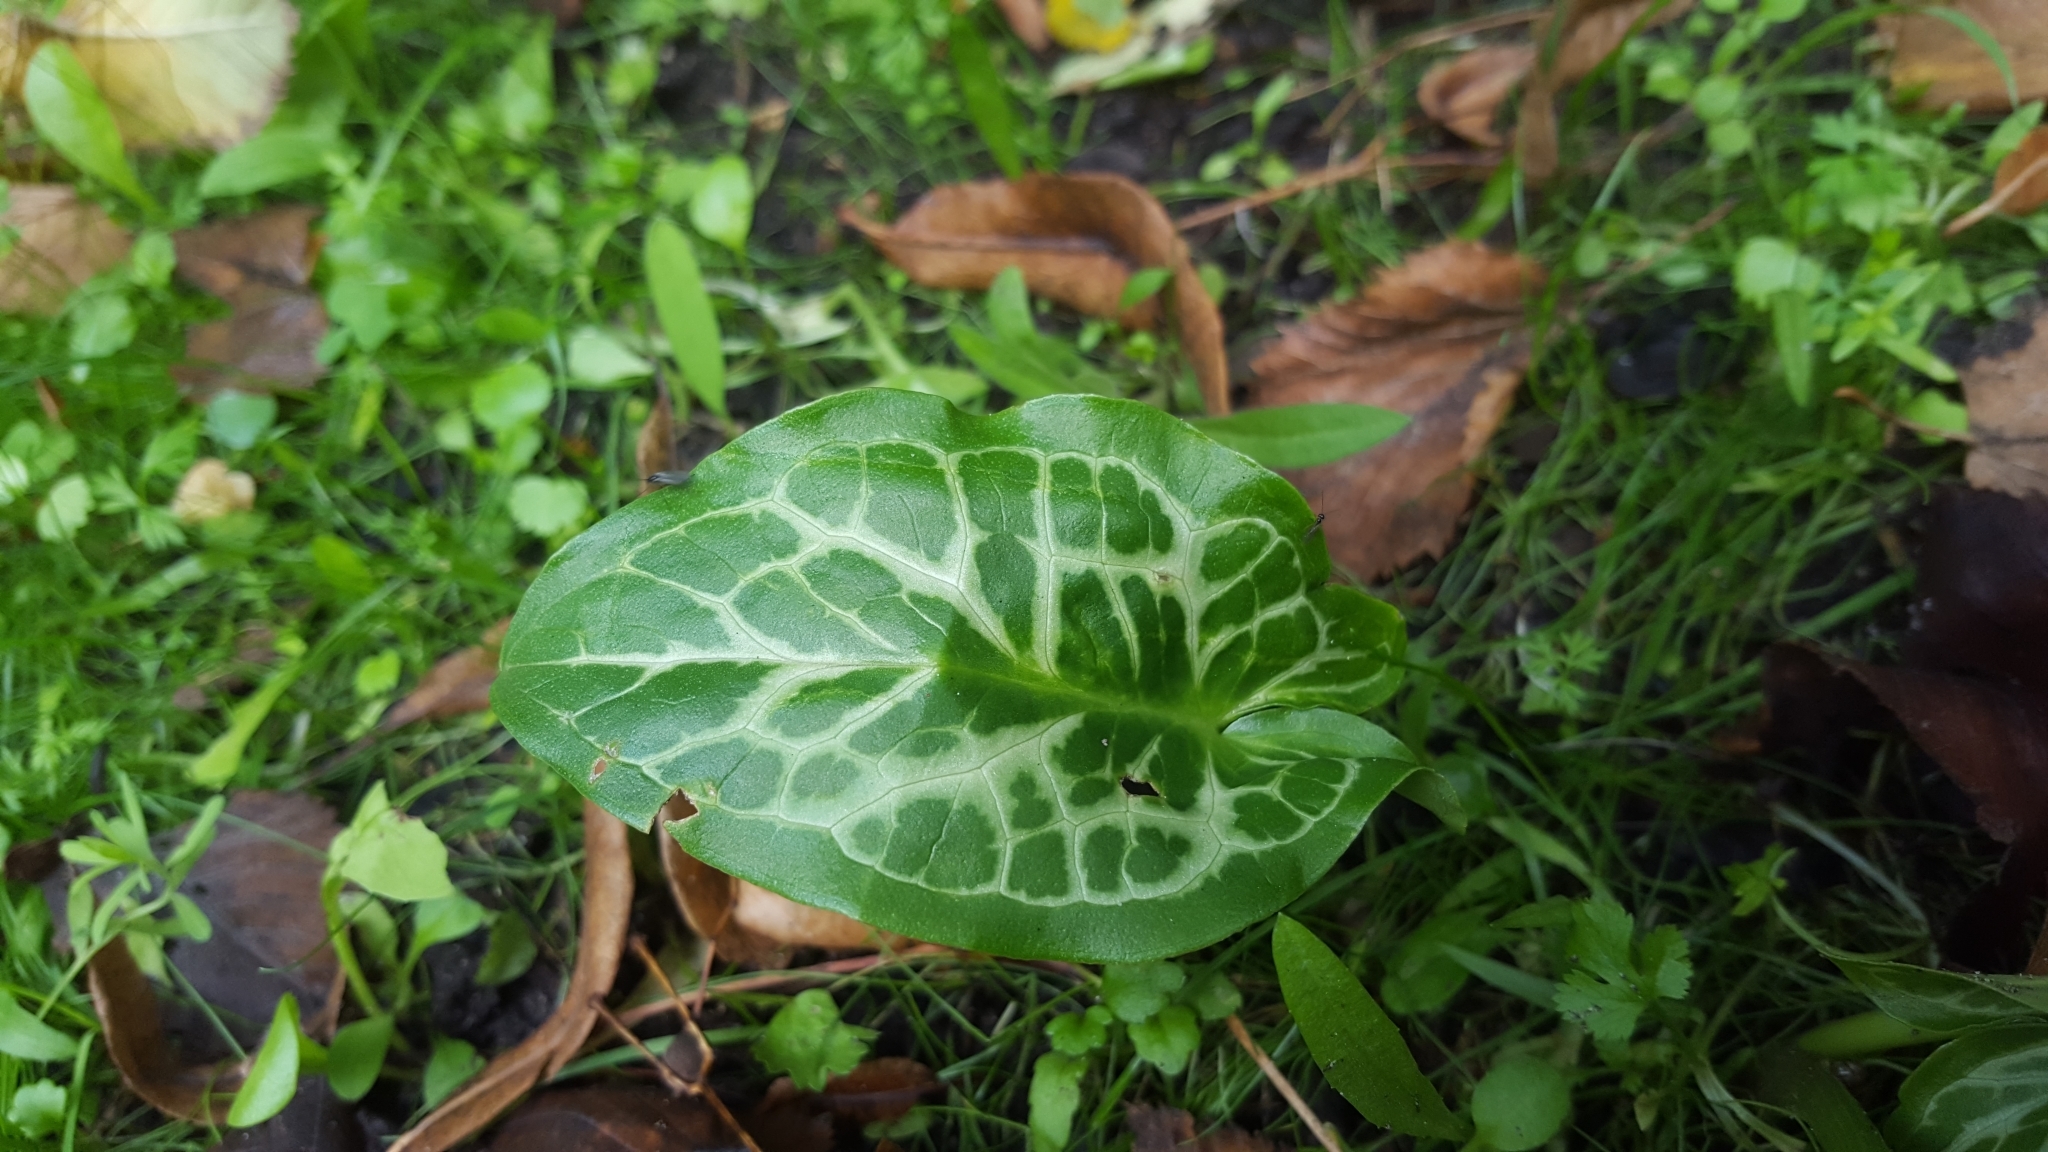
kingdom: Plantae
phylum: Tracheophyta
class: Liliopsida
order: Alismatales
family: Araceae
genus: Arum
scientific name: Arum italicum
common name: Italian lords-and-ladies
